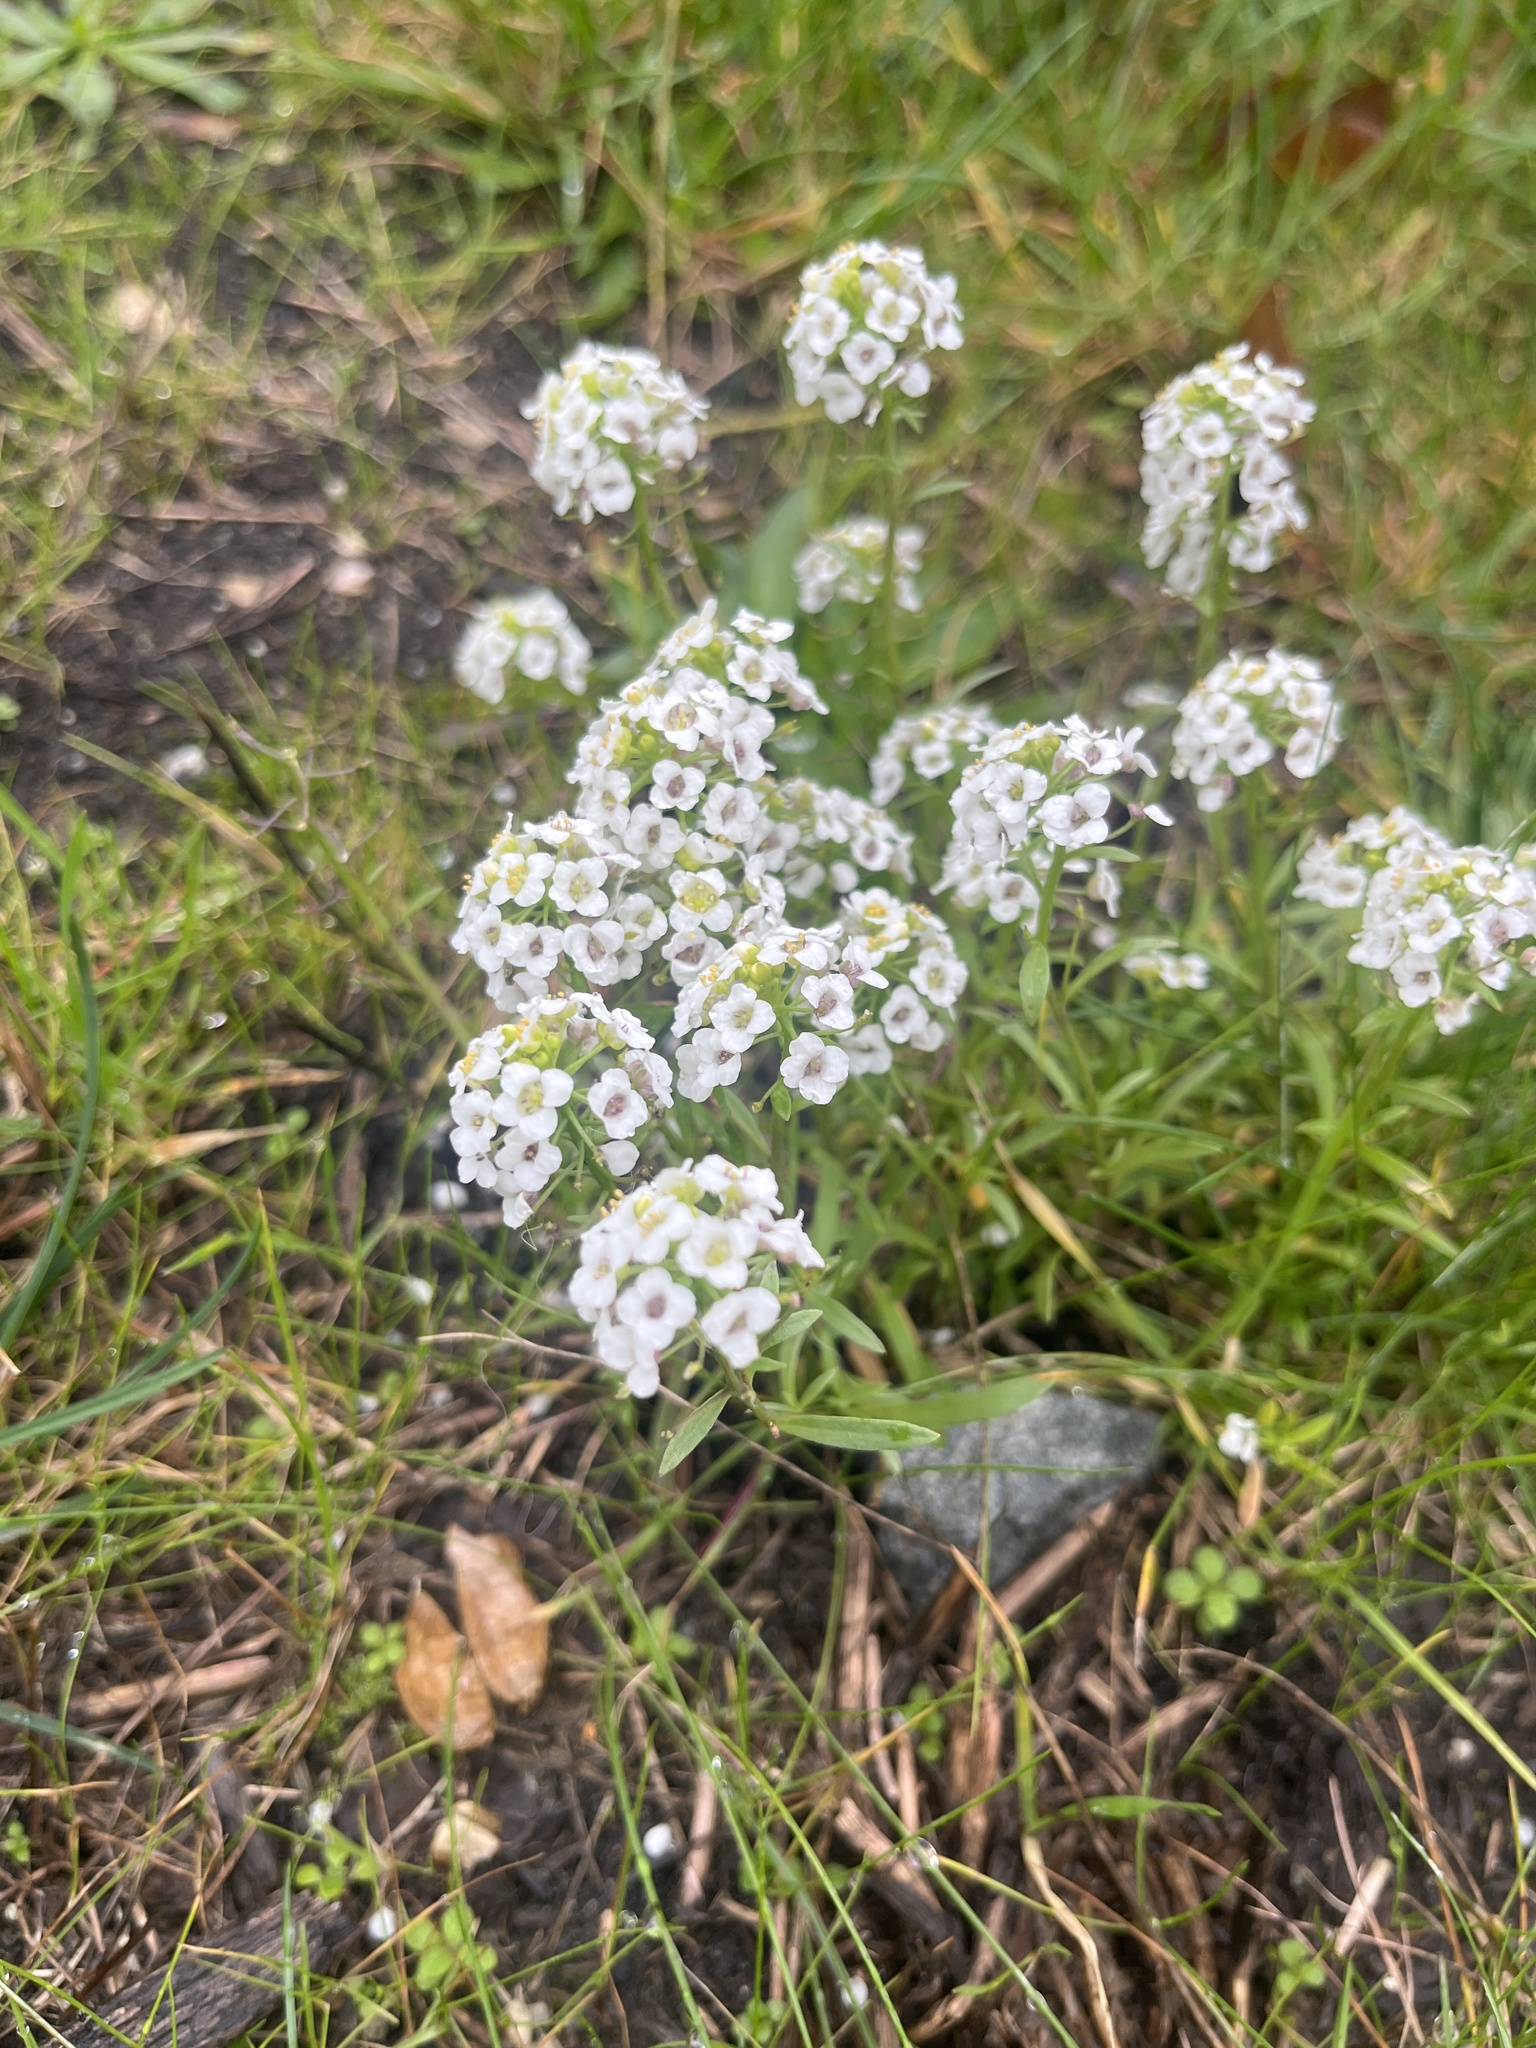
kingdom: Plantae
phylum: Tracheophyta
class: Magnoliopsida
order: Brassicales
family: Brassicaceae
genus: Lobularia
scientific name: Lobularia maritima
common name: Sweet alison
